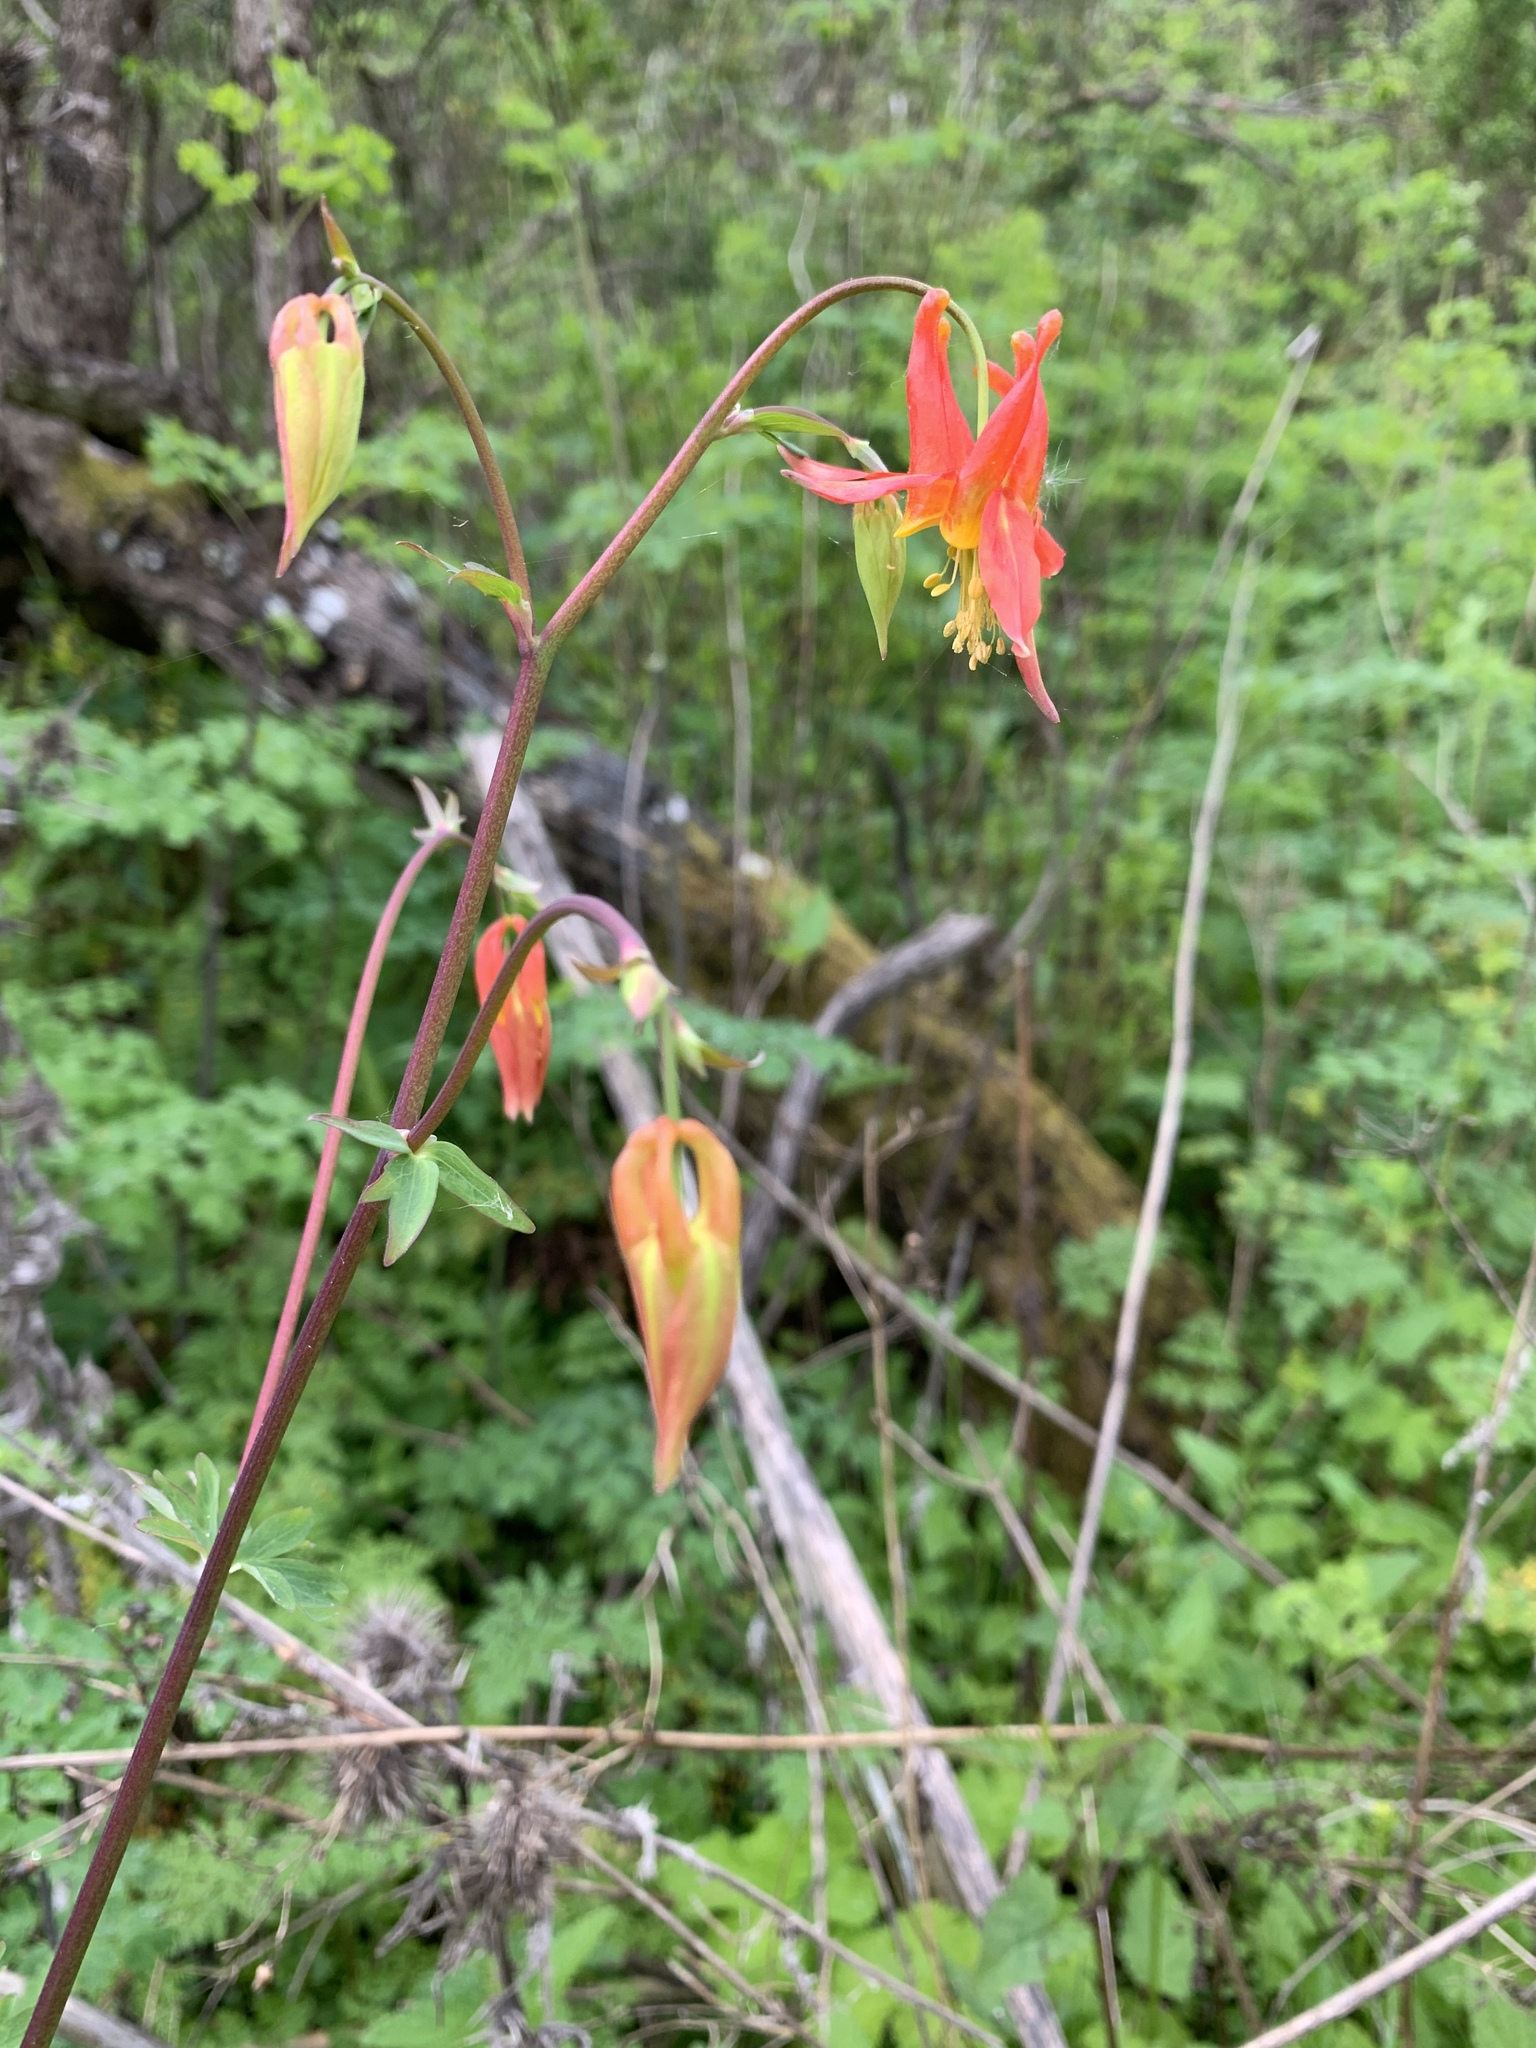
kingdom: Plantae
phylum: Tracheophyta
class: Magnoliopsida
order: Ranunculales
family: Ranunculaceae
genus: Aquilegia
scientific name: Aquilegia formosa
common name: Sitka columbine
